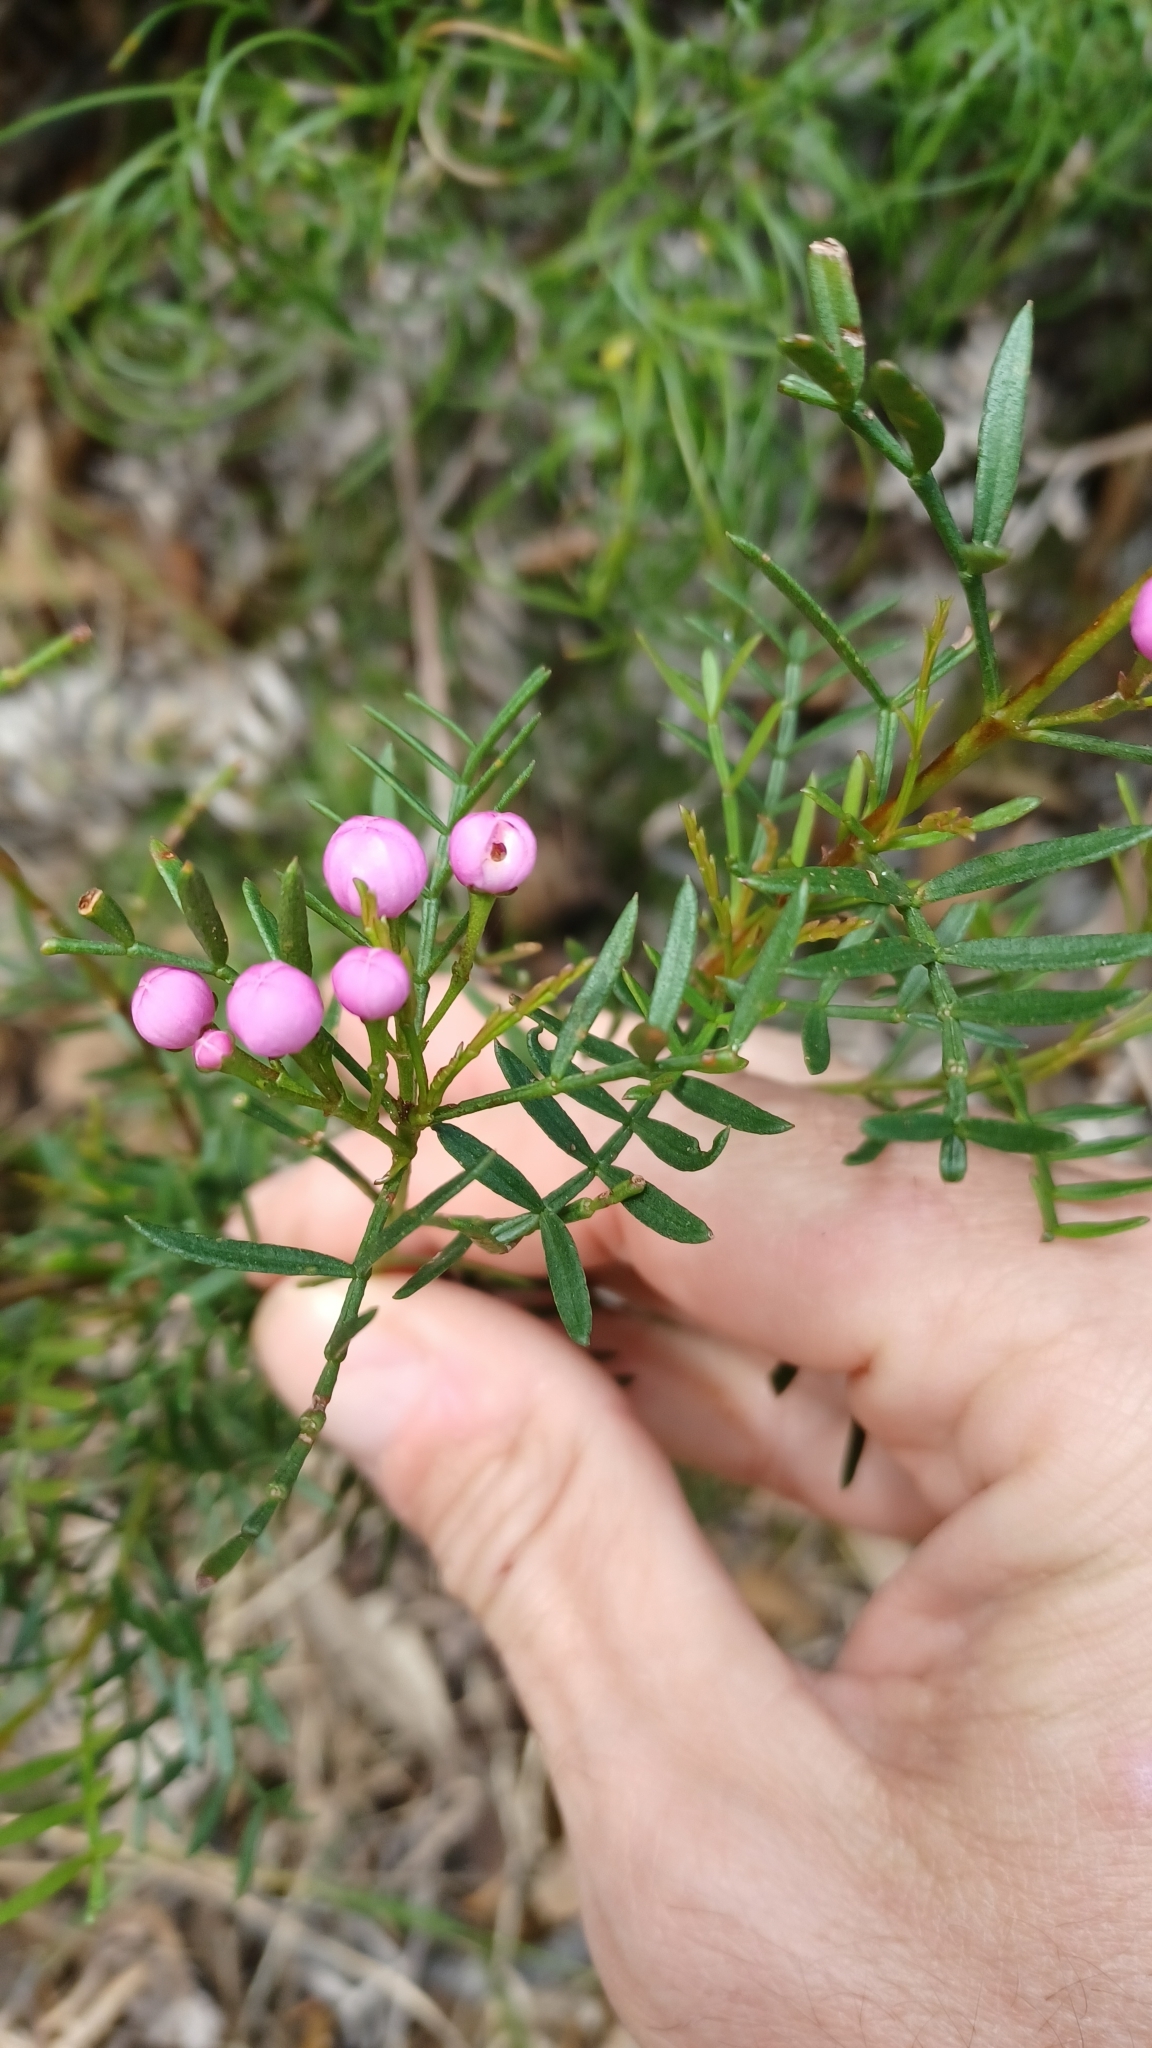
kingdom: Plantae
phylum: Tracheophyta
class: Magnoliopsida
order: Sapindales
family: Rutaceae
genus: Boronia
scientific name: Boronia pinnata
